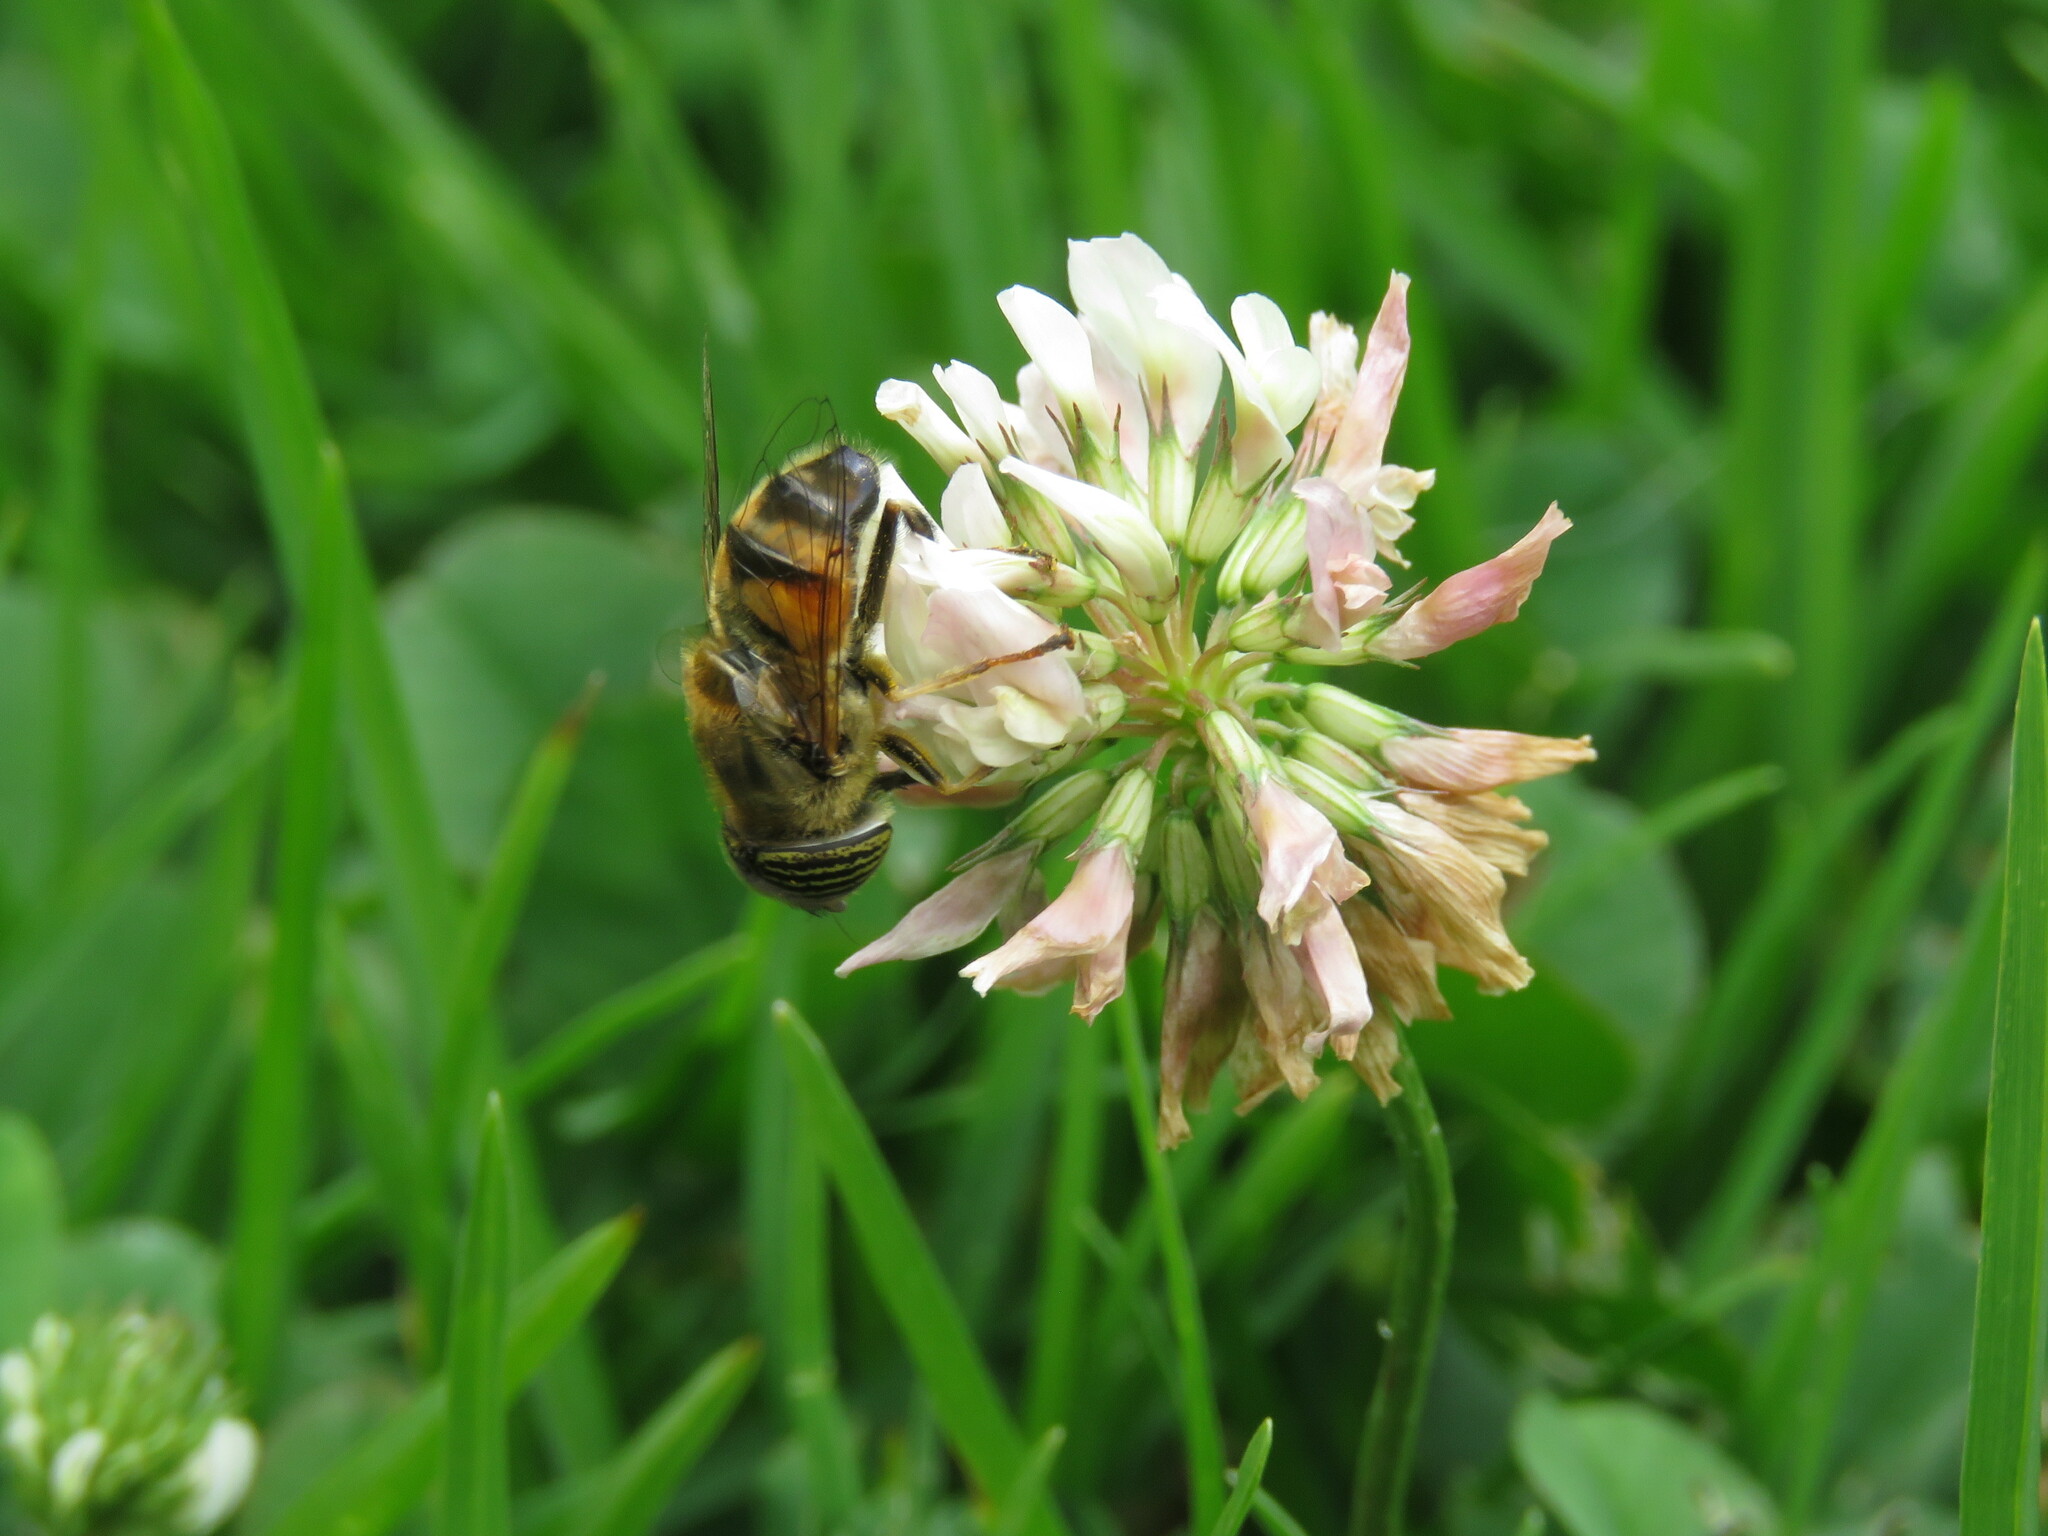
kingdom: Plantae
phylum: Tracheophyta
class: Magnoliopsida
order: Fabales
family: Fabaceae
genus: Trifolium
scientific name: Trifolium repens
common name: White clover
